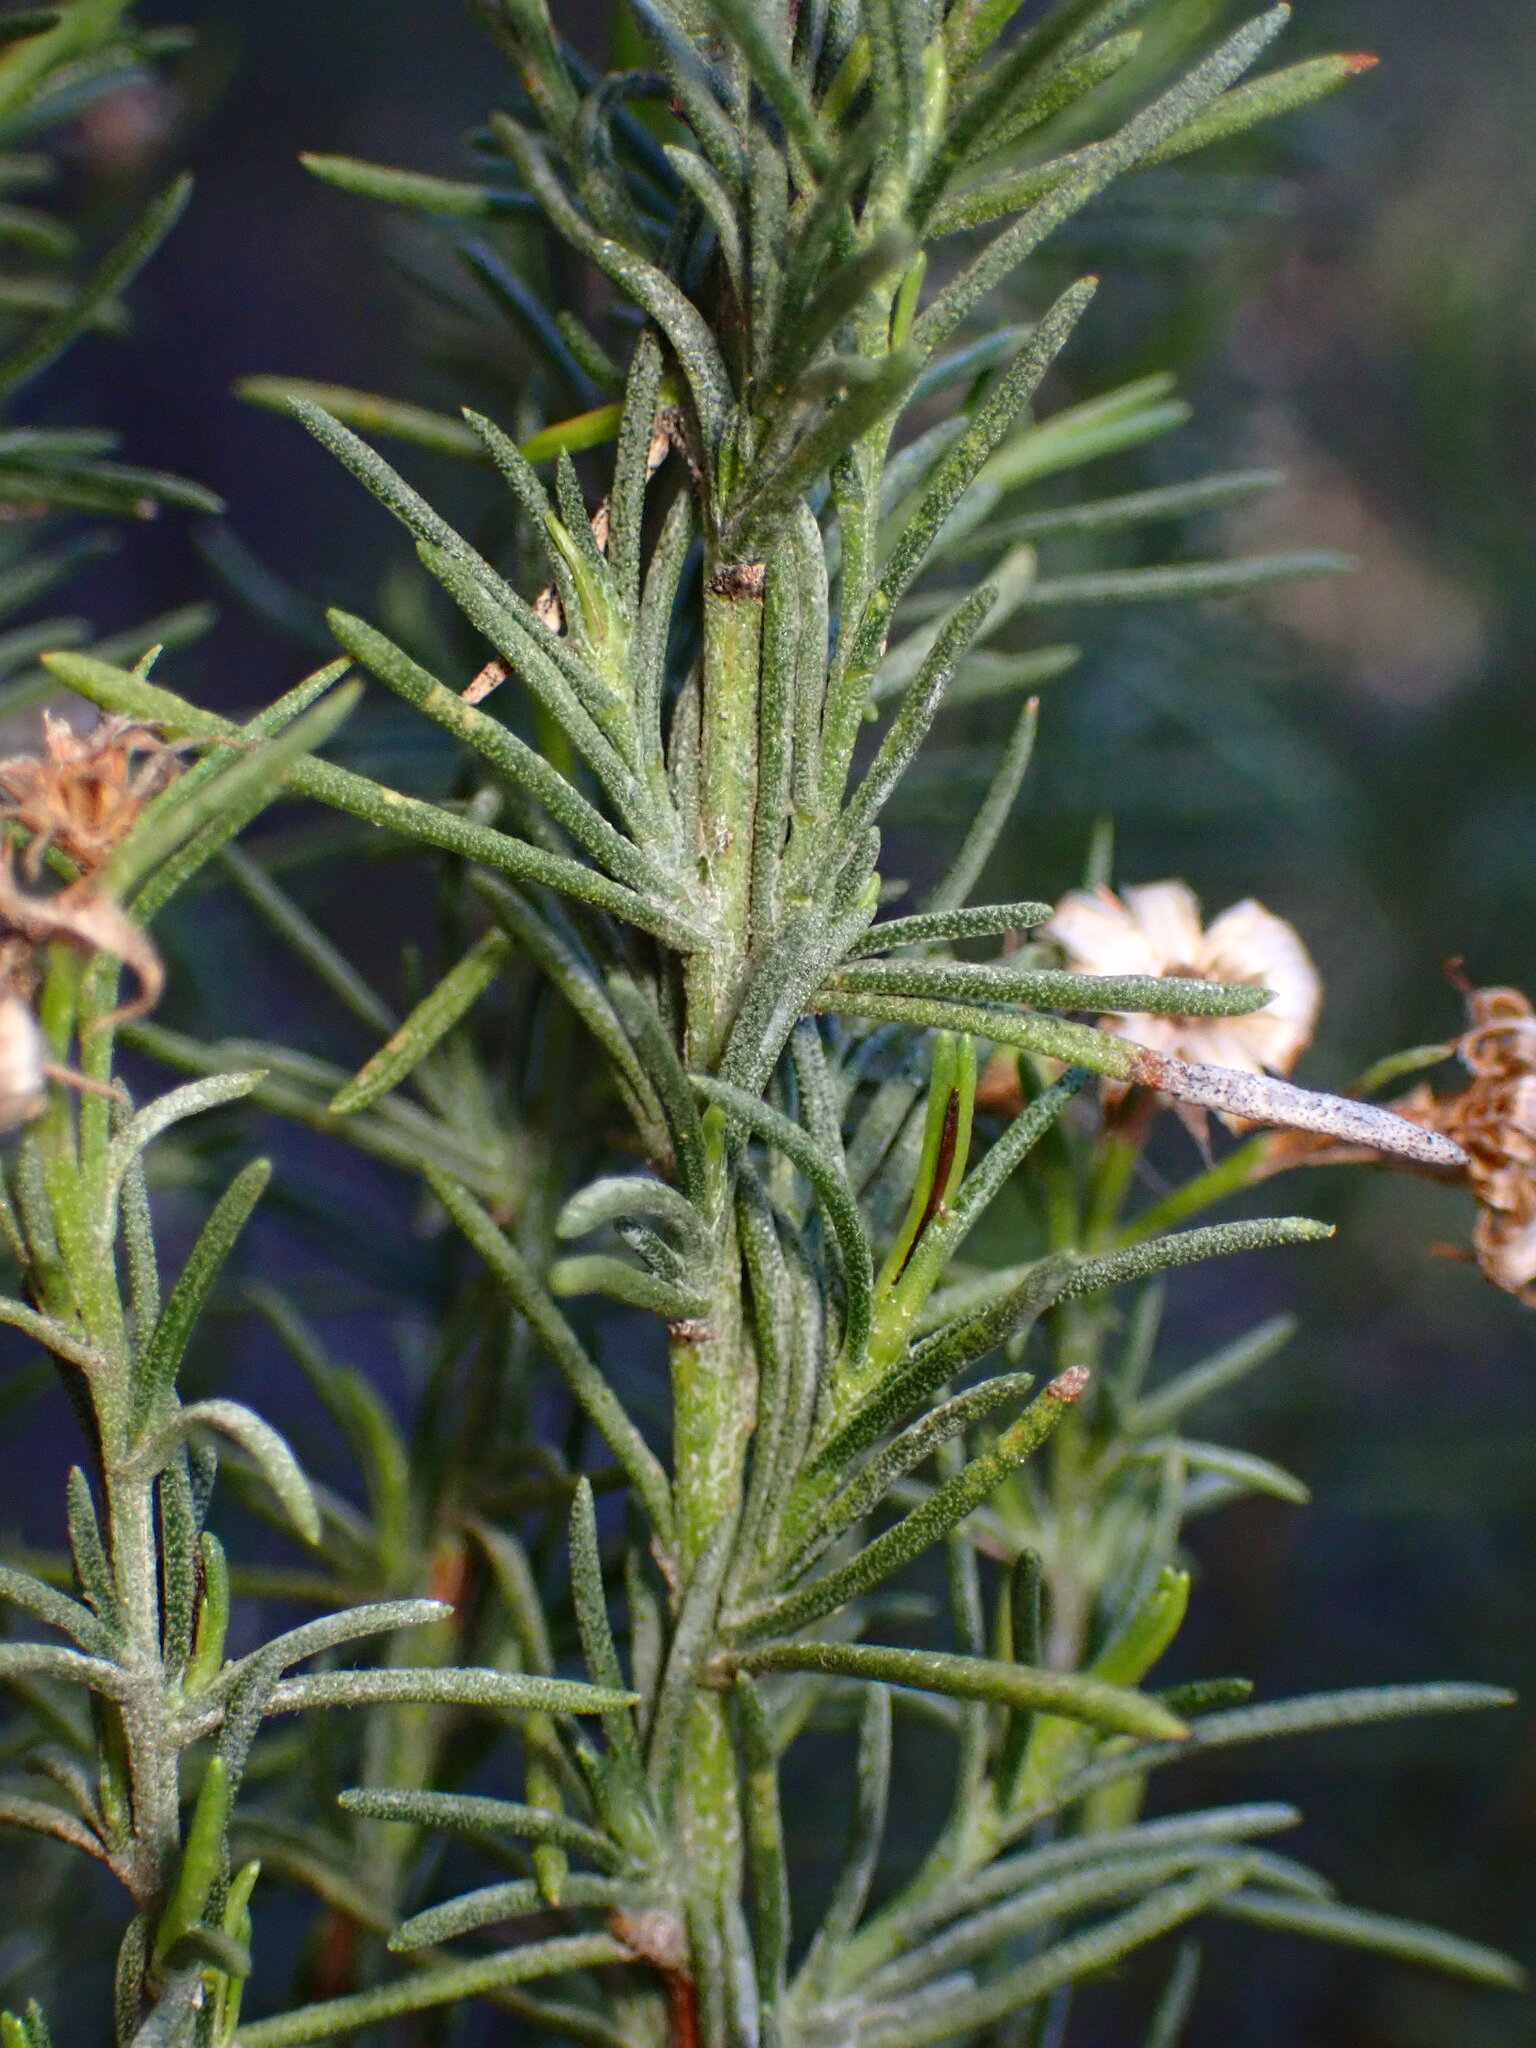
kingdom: Plantae
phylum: Tracheophyta
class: Magnoliopsida
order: Asterales
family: Asteraceae
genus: Ericameria
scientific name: Ericameria pinifolia
